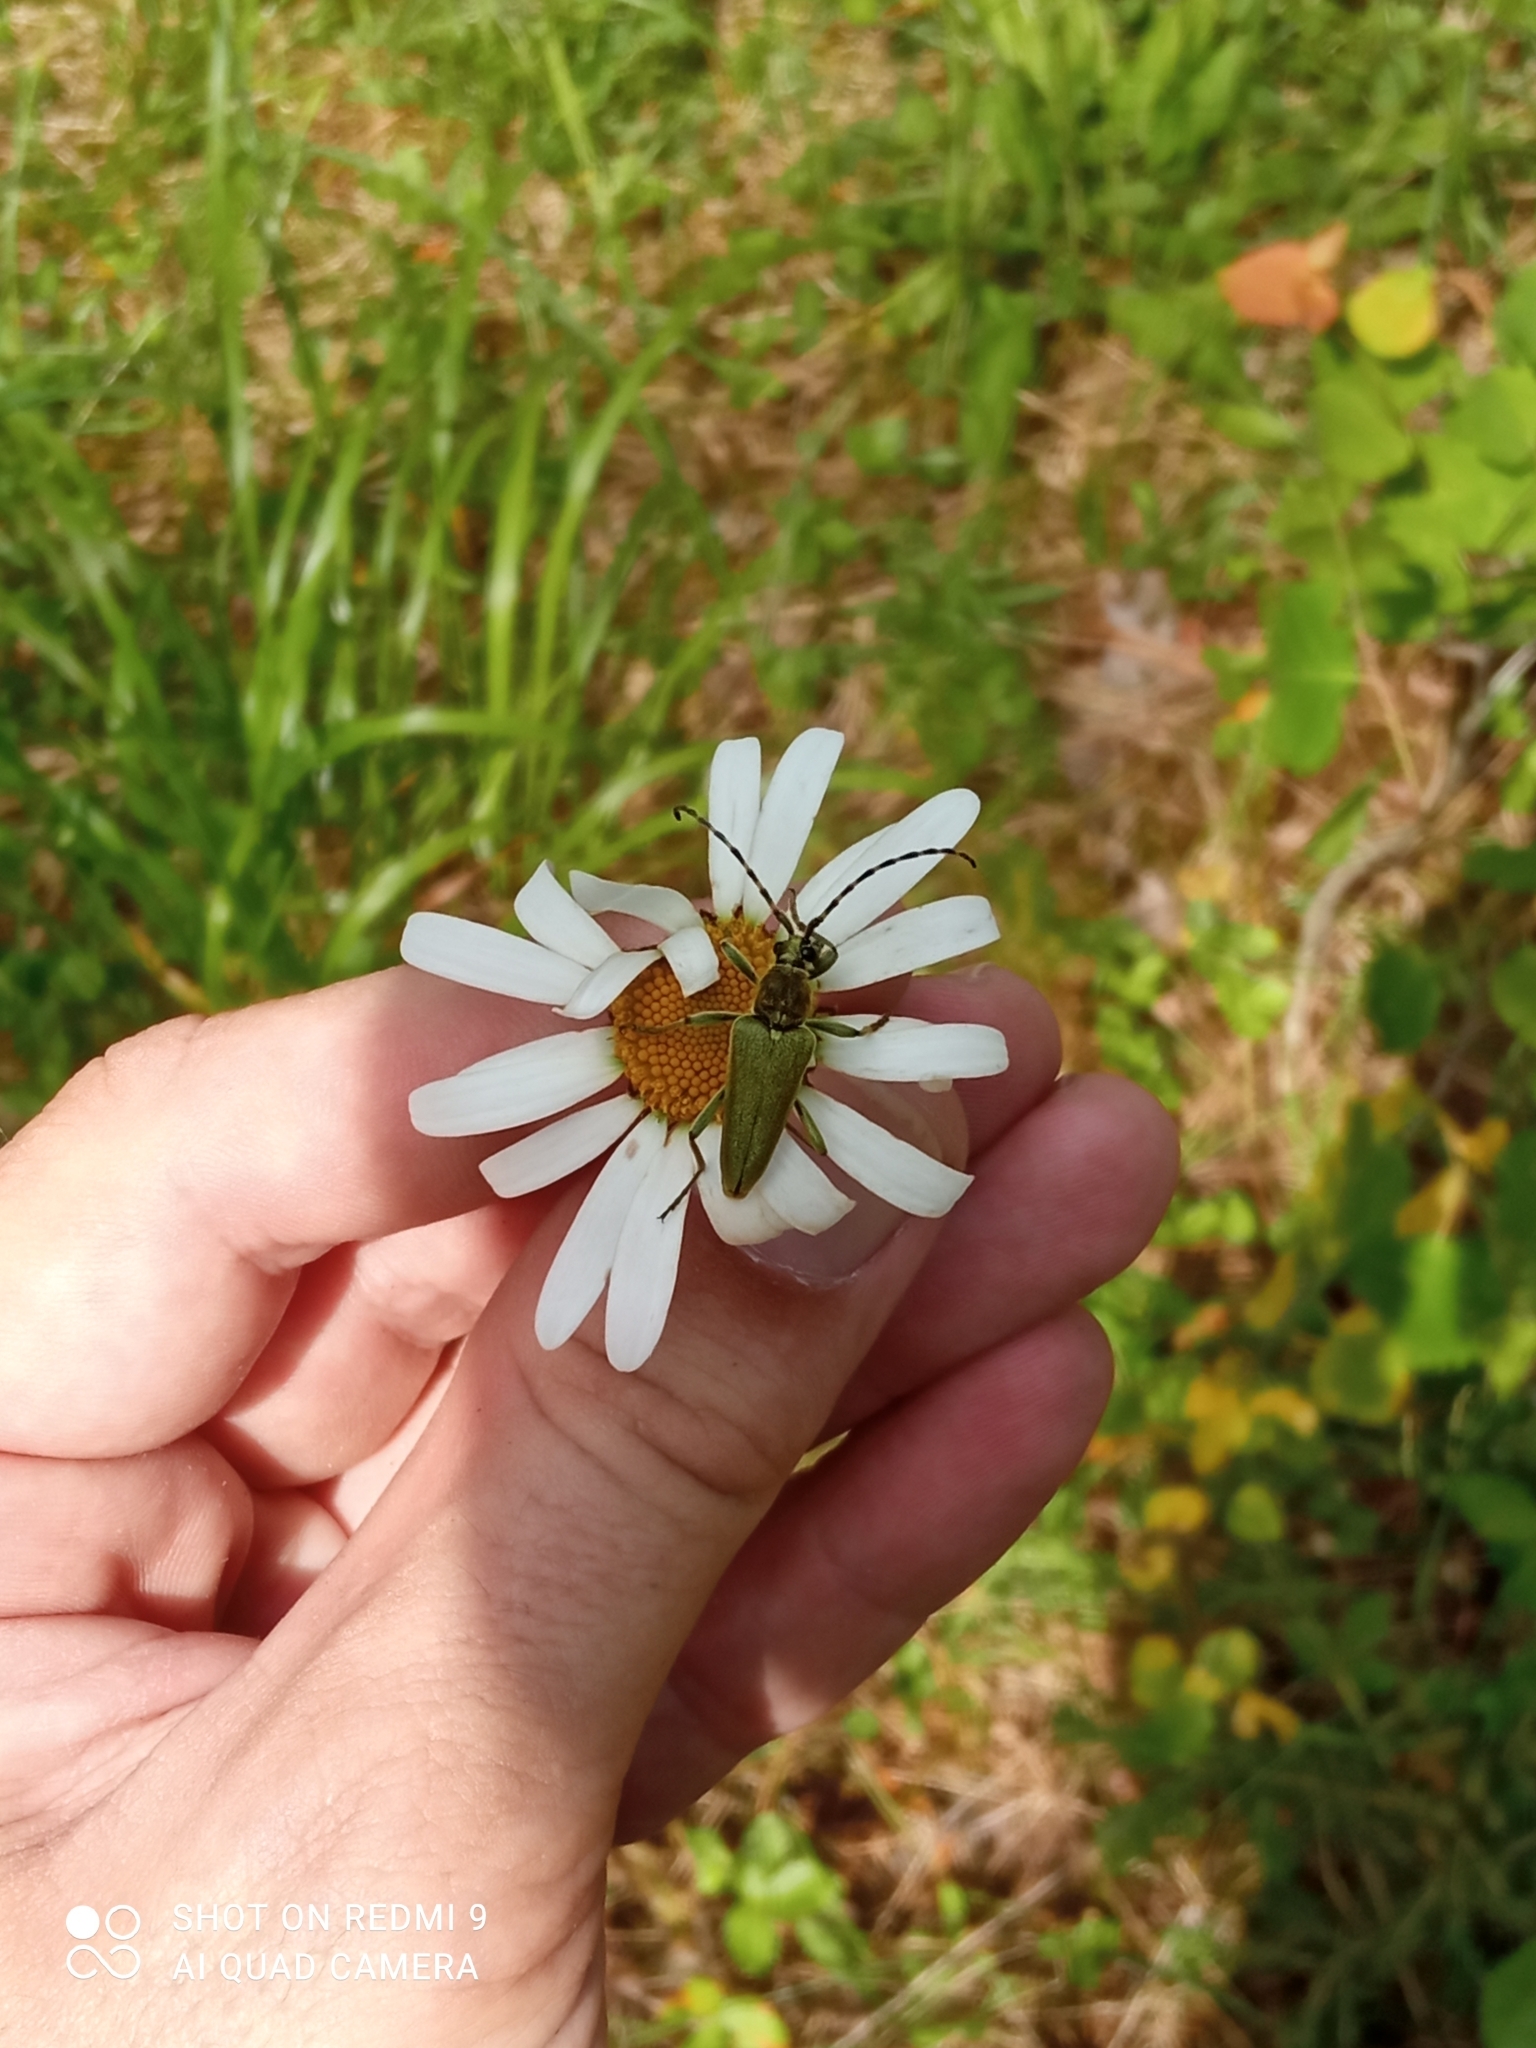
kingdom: Animalia
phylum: Arthropoda
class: Insecta
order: Coleoptera
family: Cerambycidae
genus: Lepturobosca
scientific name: Lepturobosca virens
